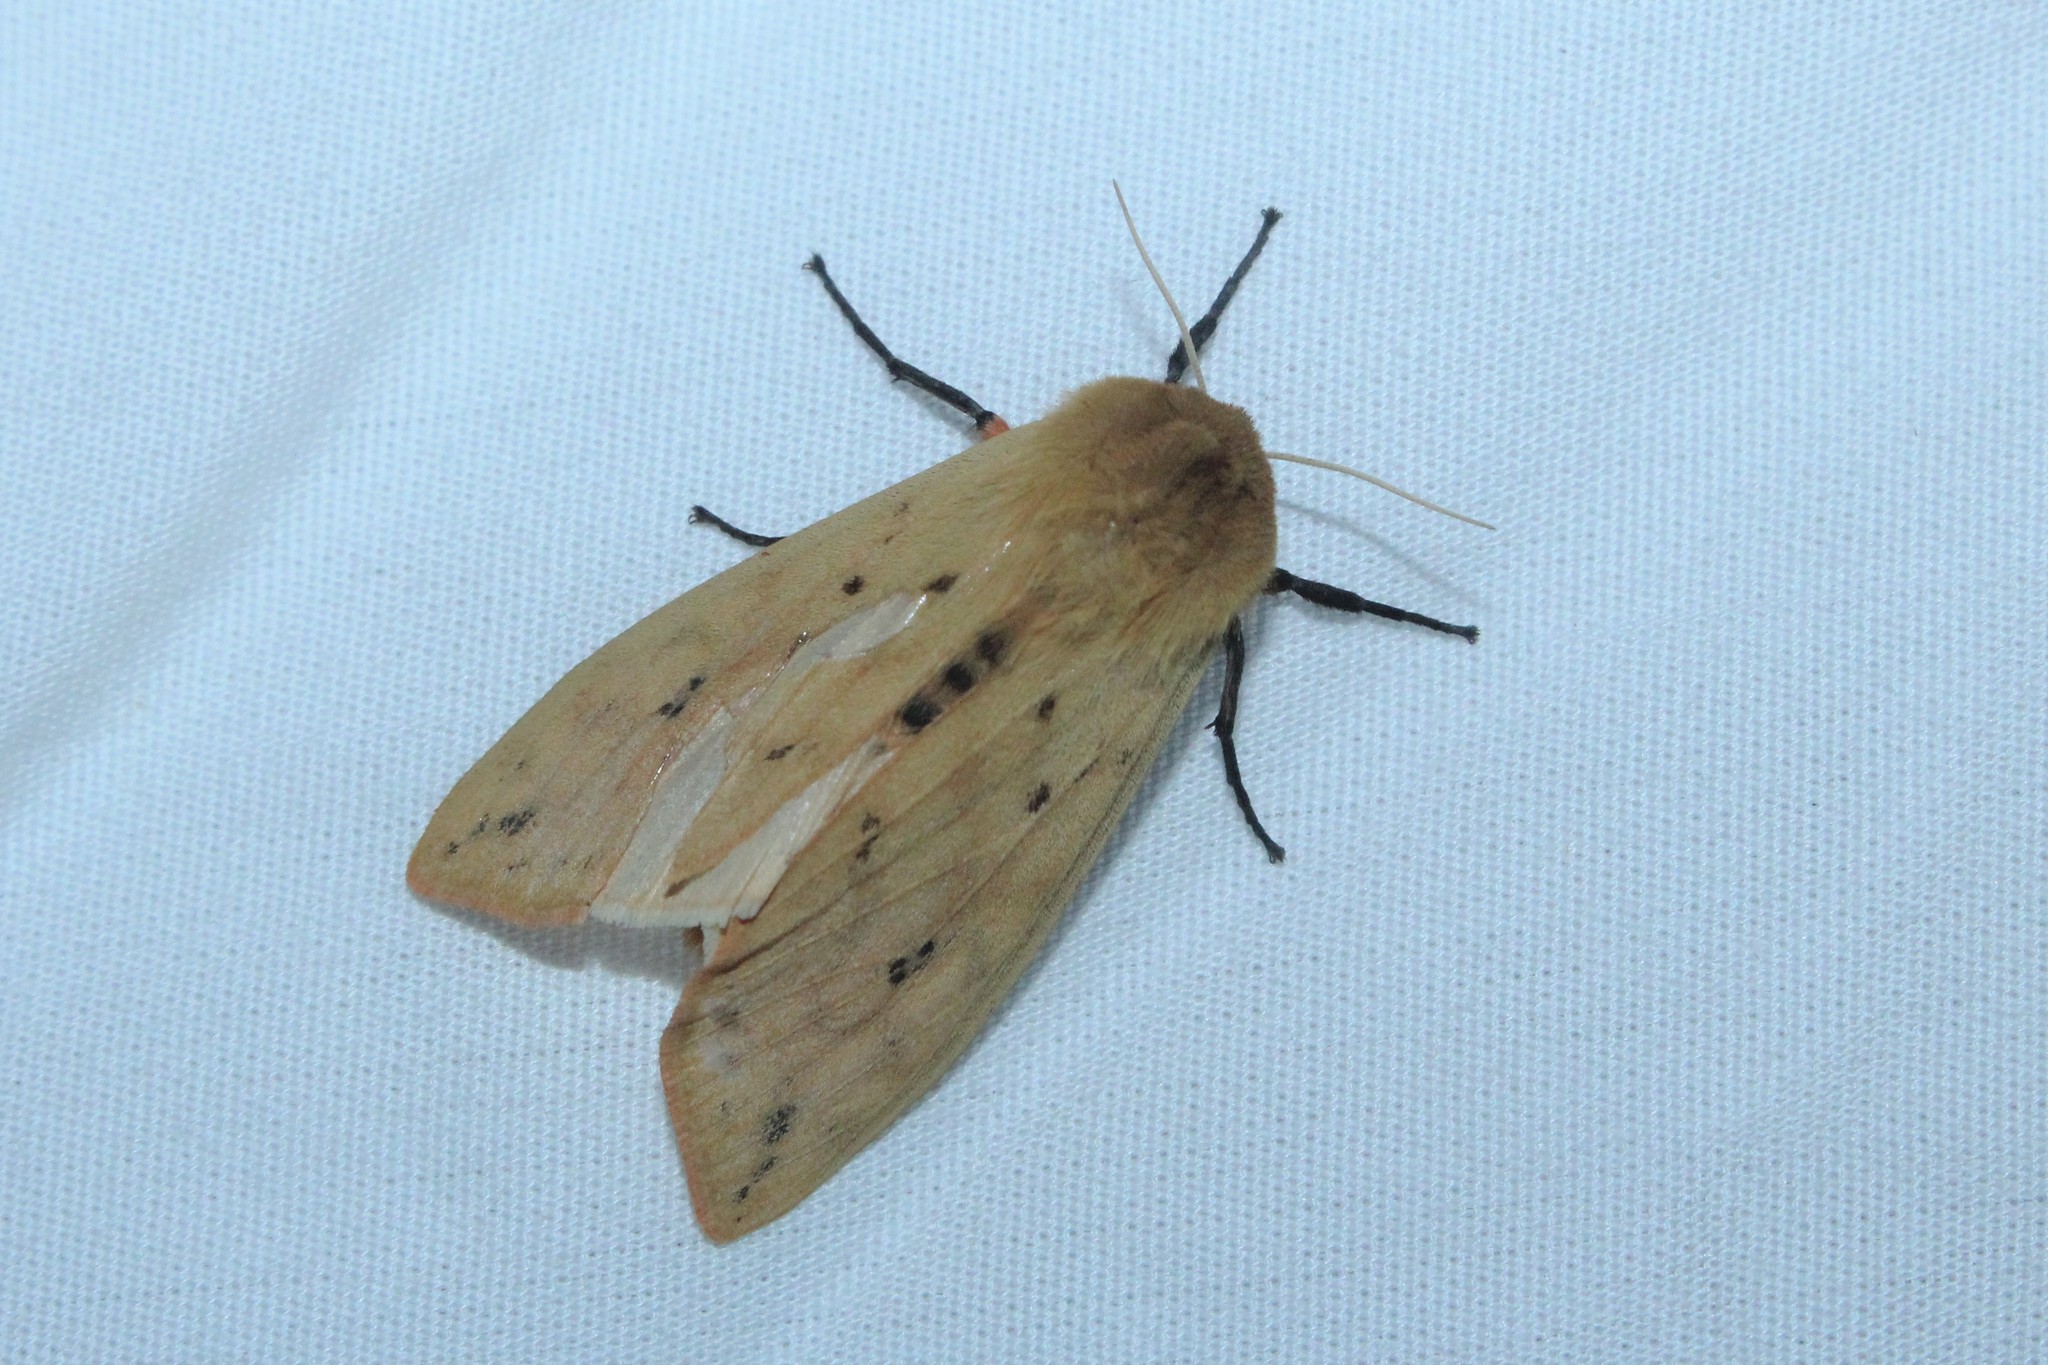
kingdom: Animalia
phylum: Arthropoda
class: Insecta
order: Lepidoptera
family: Erebidae
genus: Pyrrharctia
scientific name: Pyrrharctia isabella
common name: Isabella tiger moth
